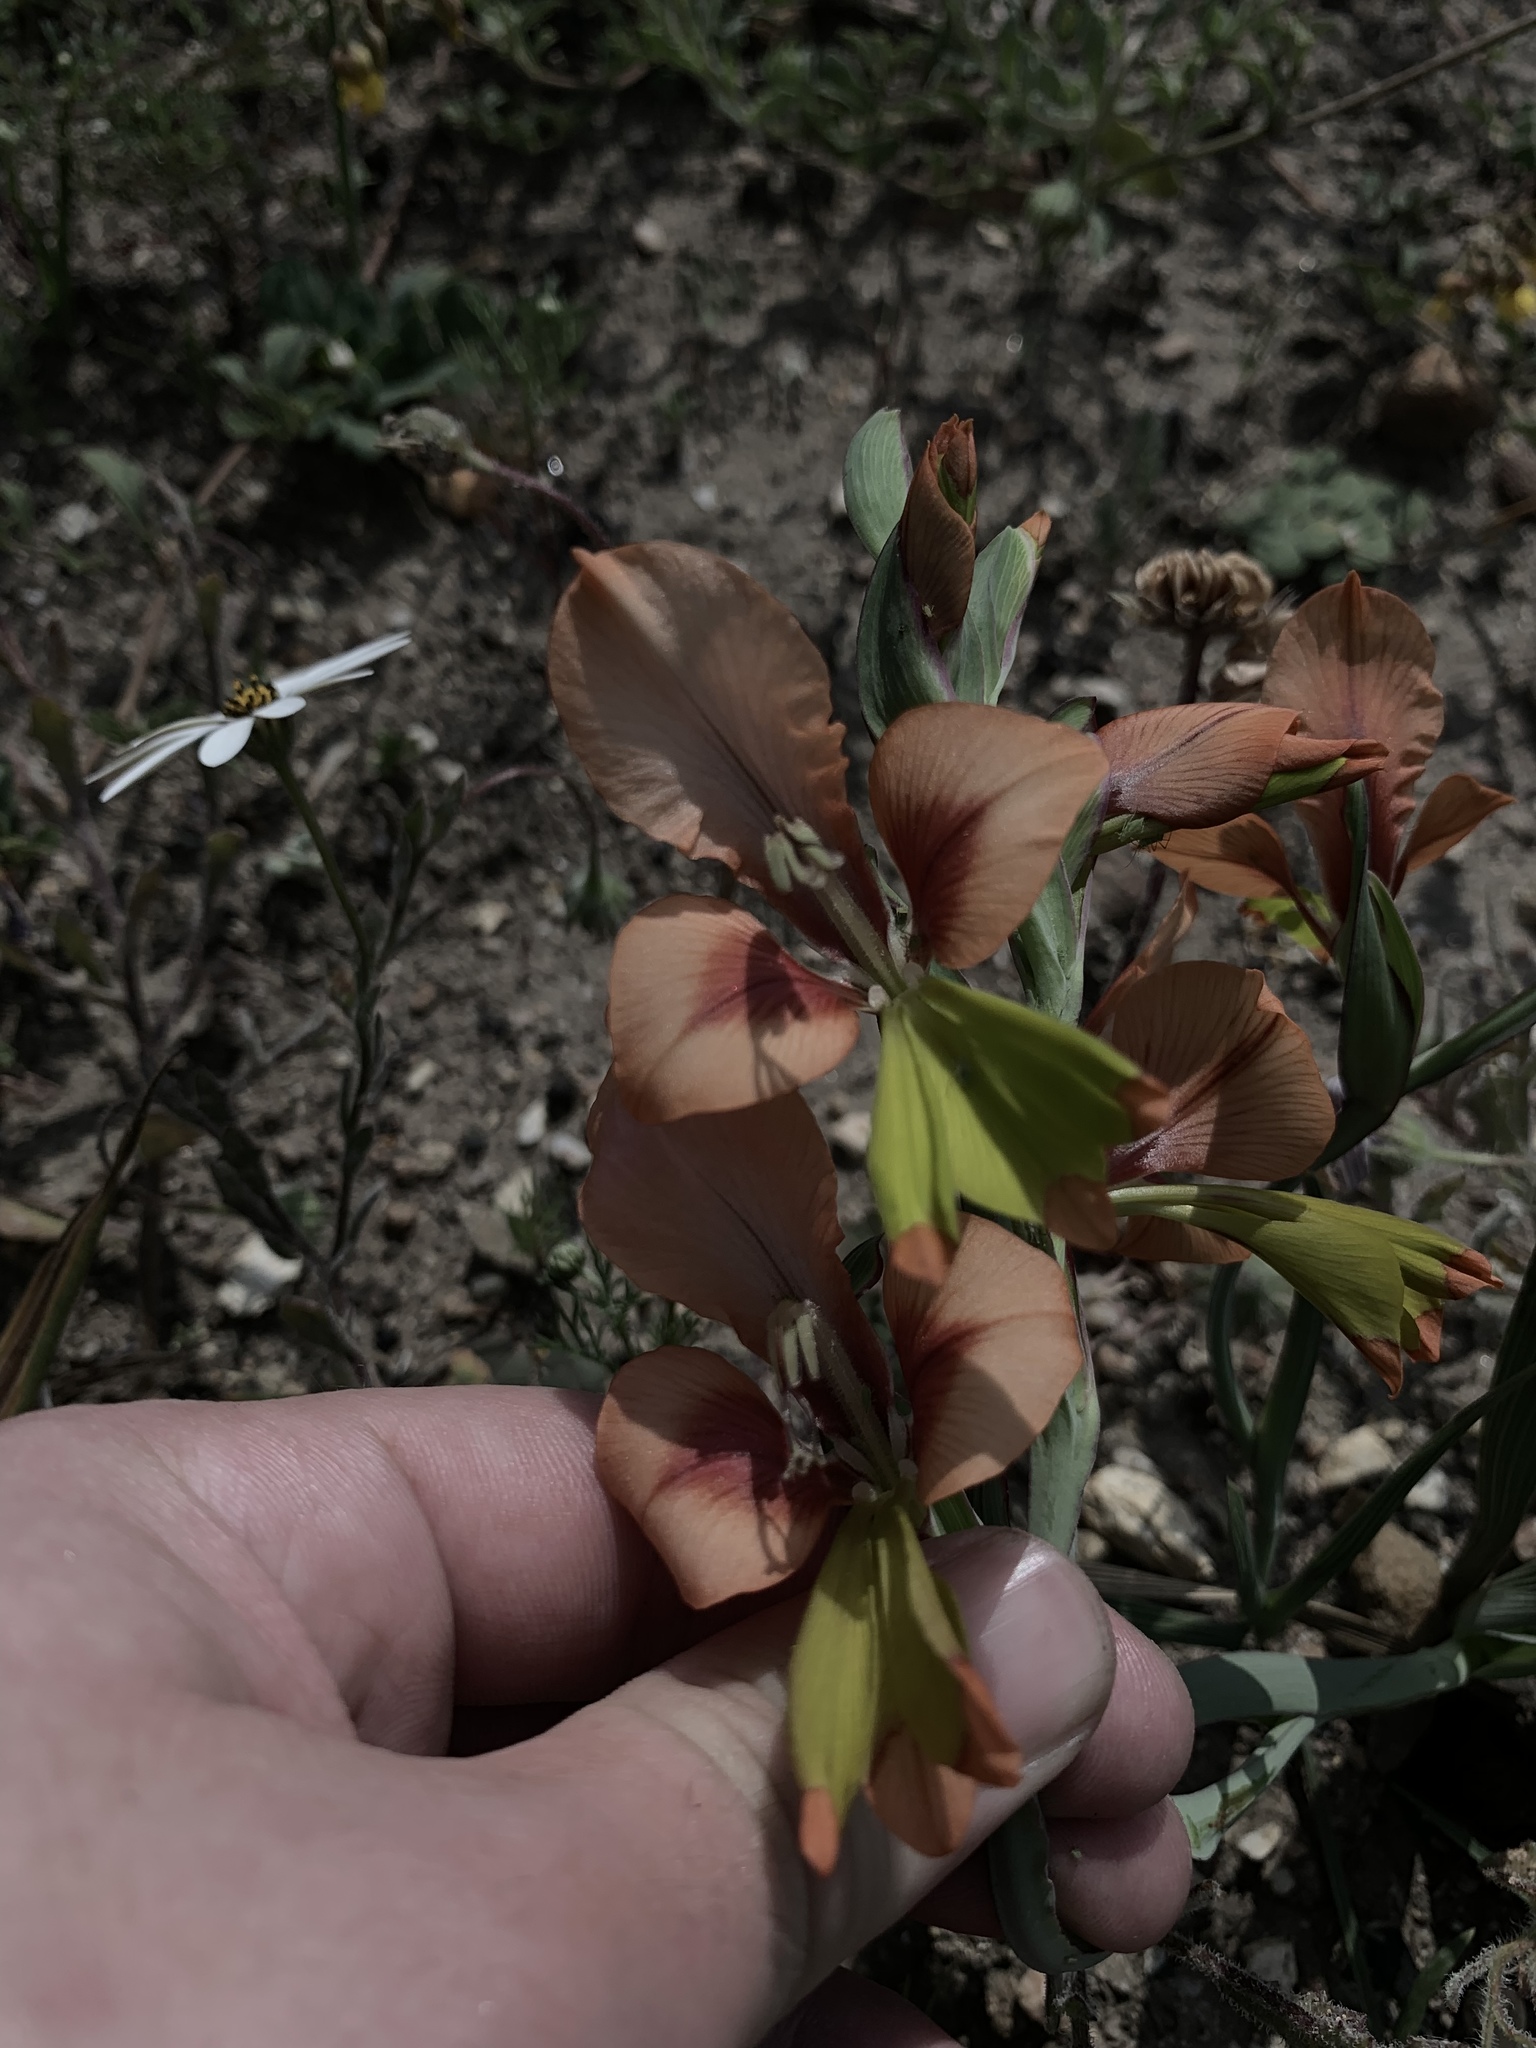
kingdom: Plantae
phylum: Tracheophyta
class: Liliopsida
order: Asparagales
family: Iridaceae
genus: Gladiolus
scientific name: Gladiolus alatus
